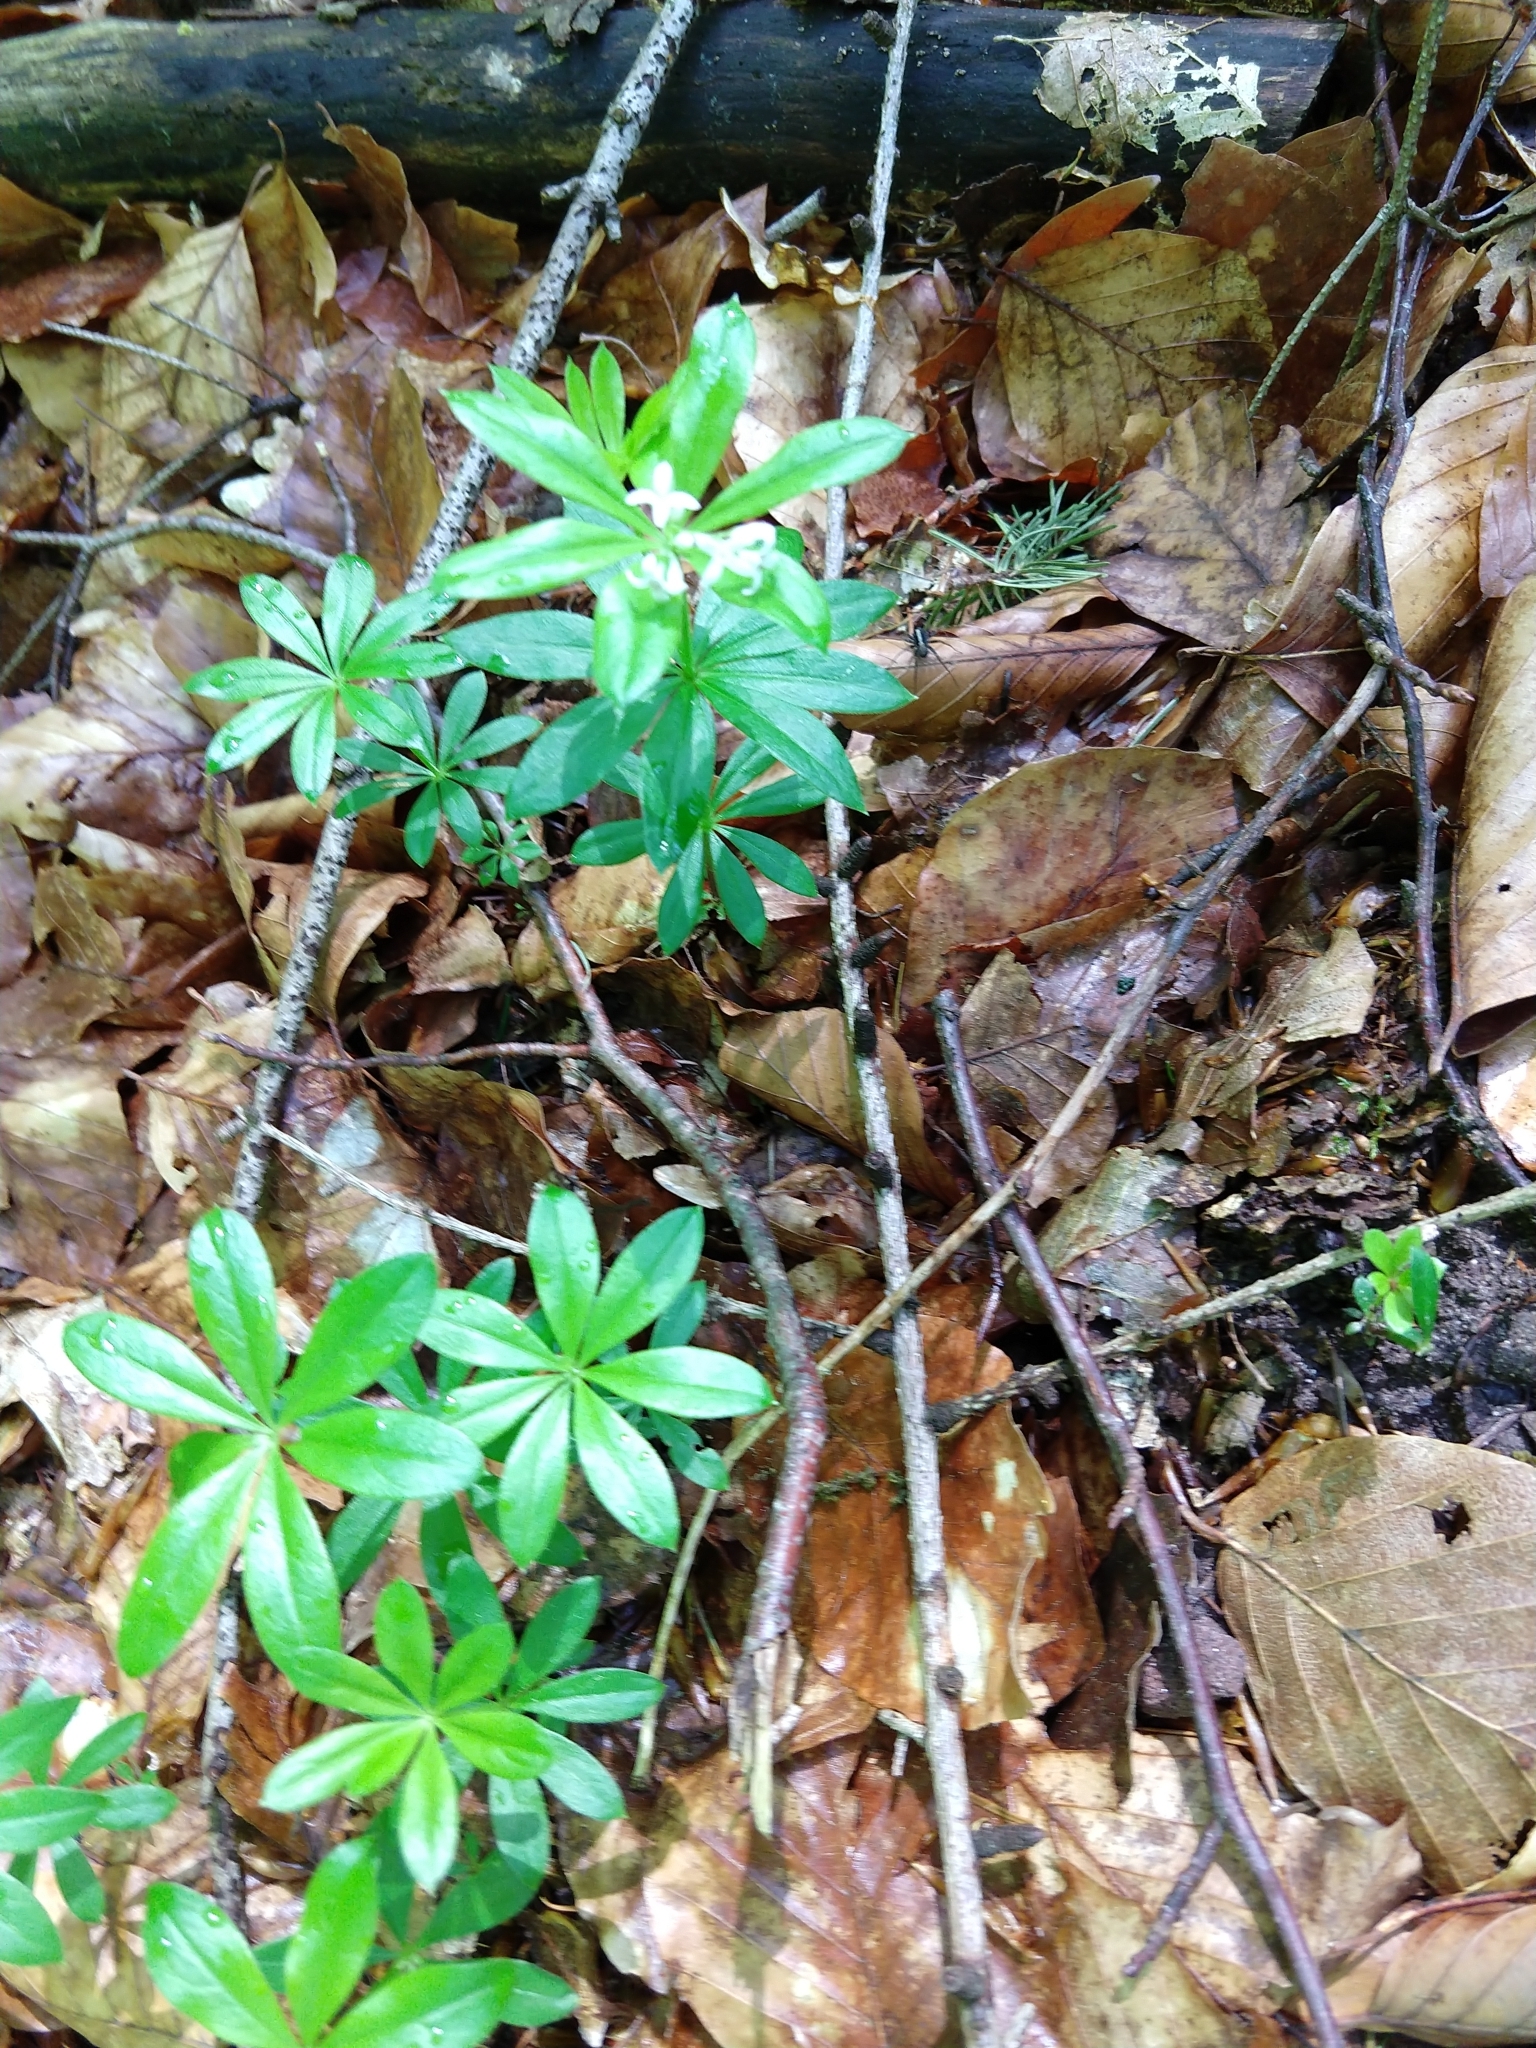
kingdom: Plantae
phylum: Tracheophyta
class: Magnoliopsida
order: Gentianales
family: Rubiaceae
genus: Galium
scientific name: Galium odoratum
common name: Sweet woodruff
